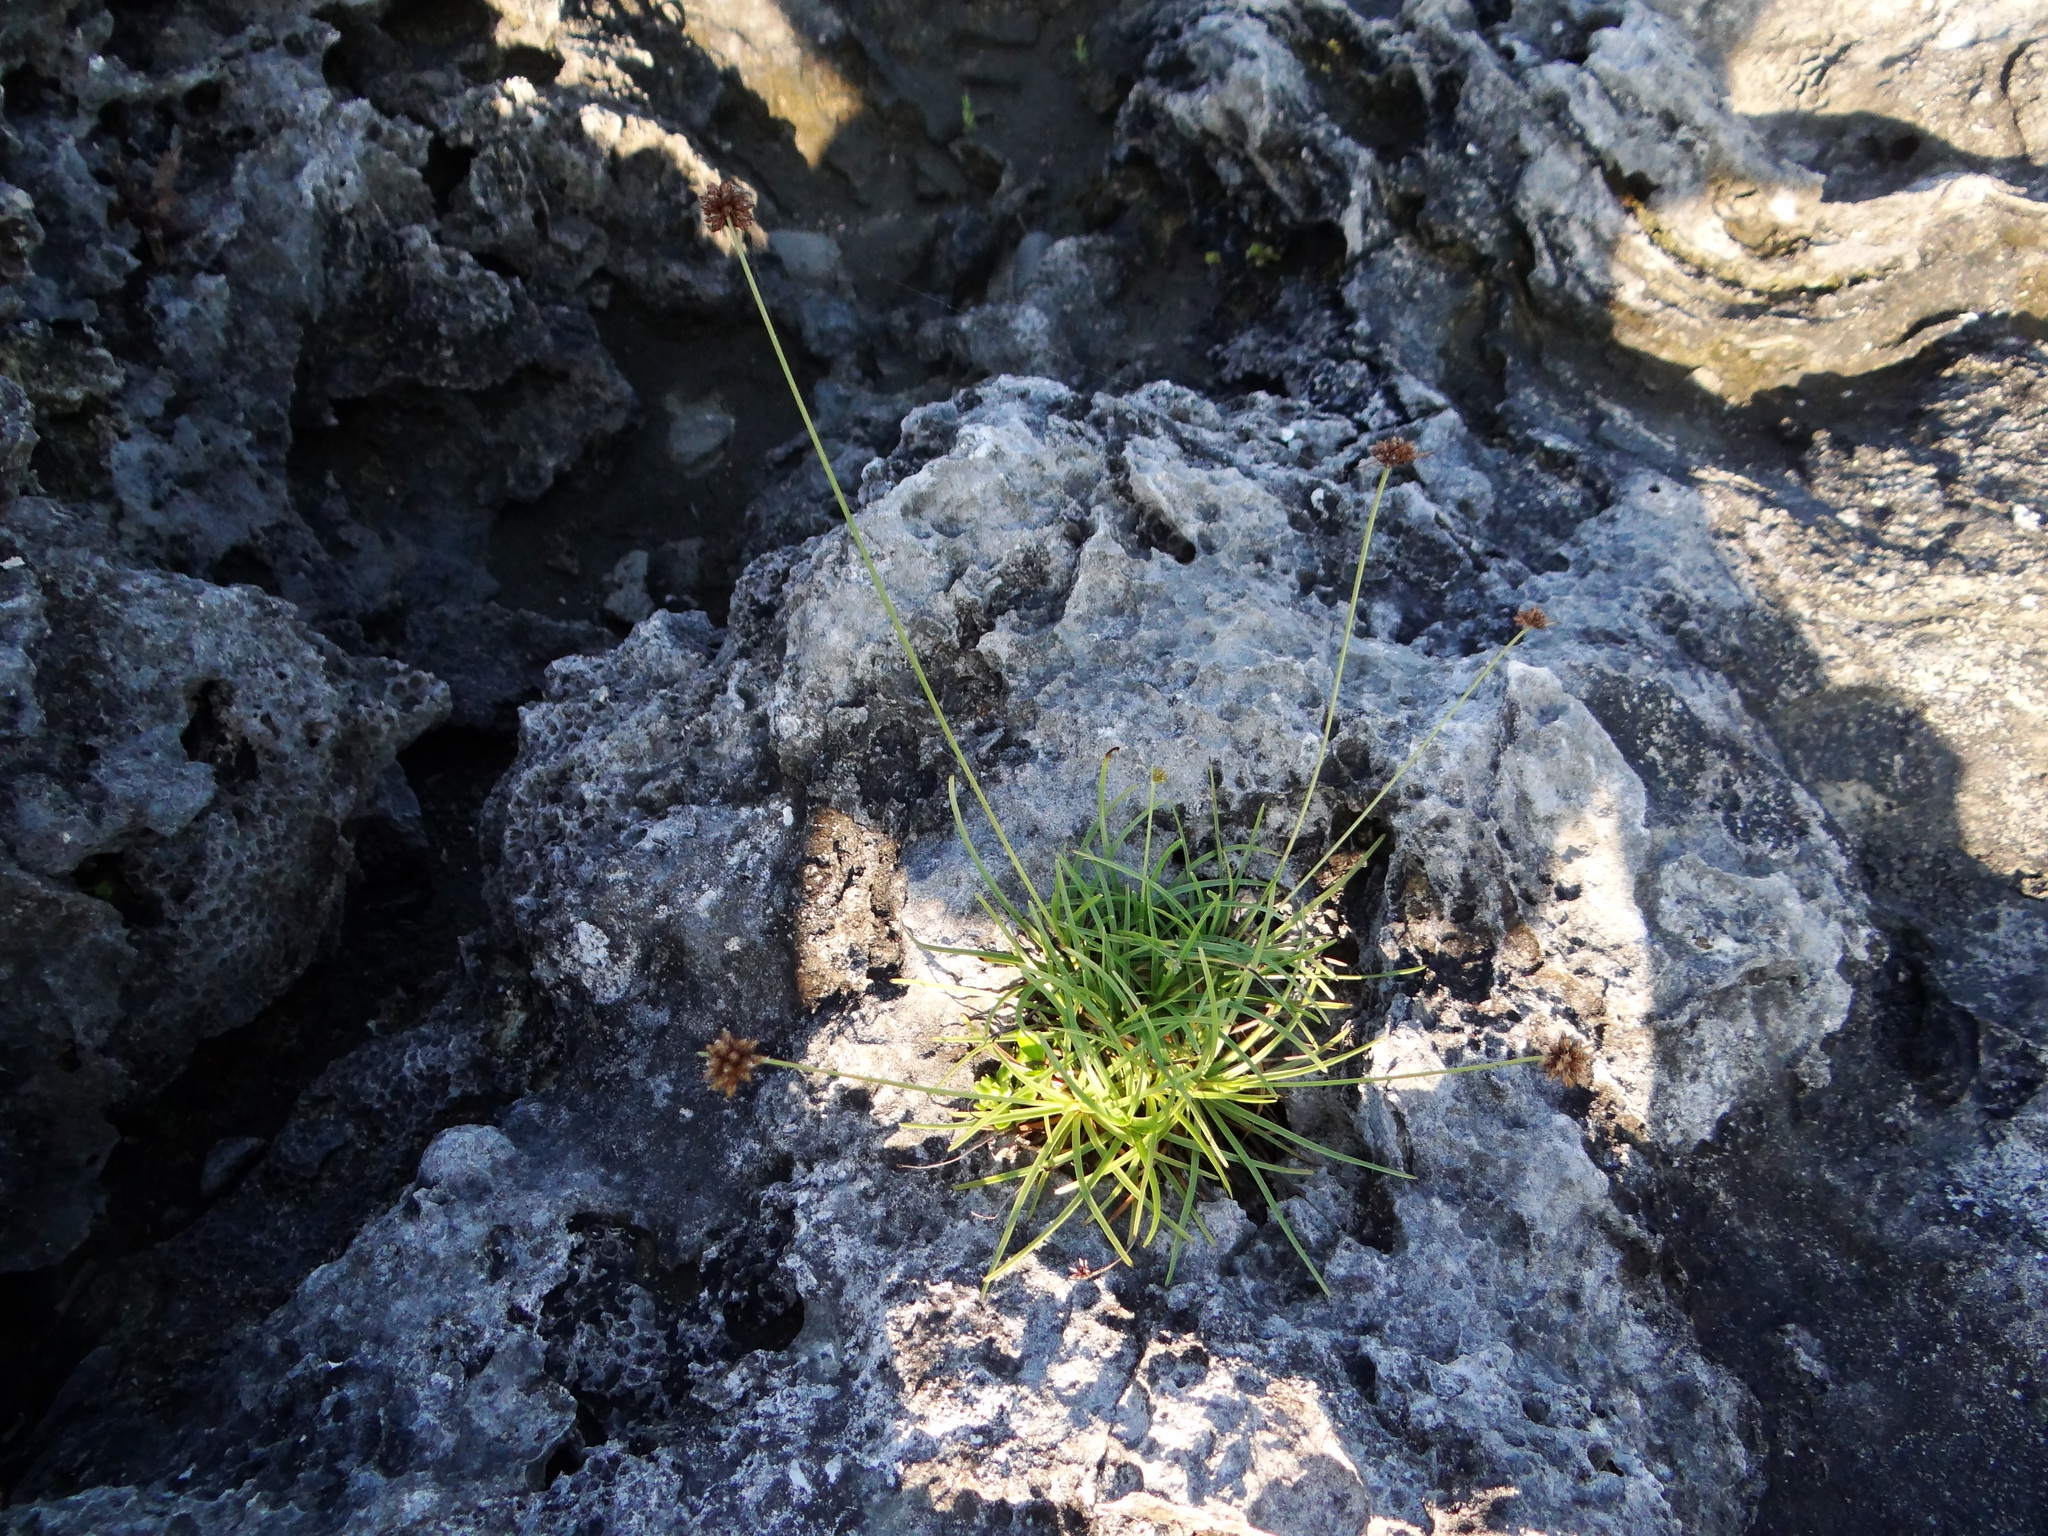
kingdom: Plantae
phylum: Tracheophyta
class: Liliopsida
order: Poales
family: Cyperaceae
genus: Fimbristylis
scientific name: Fimbristylis cymosa
